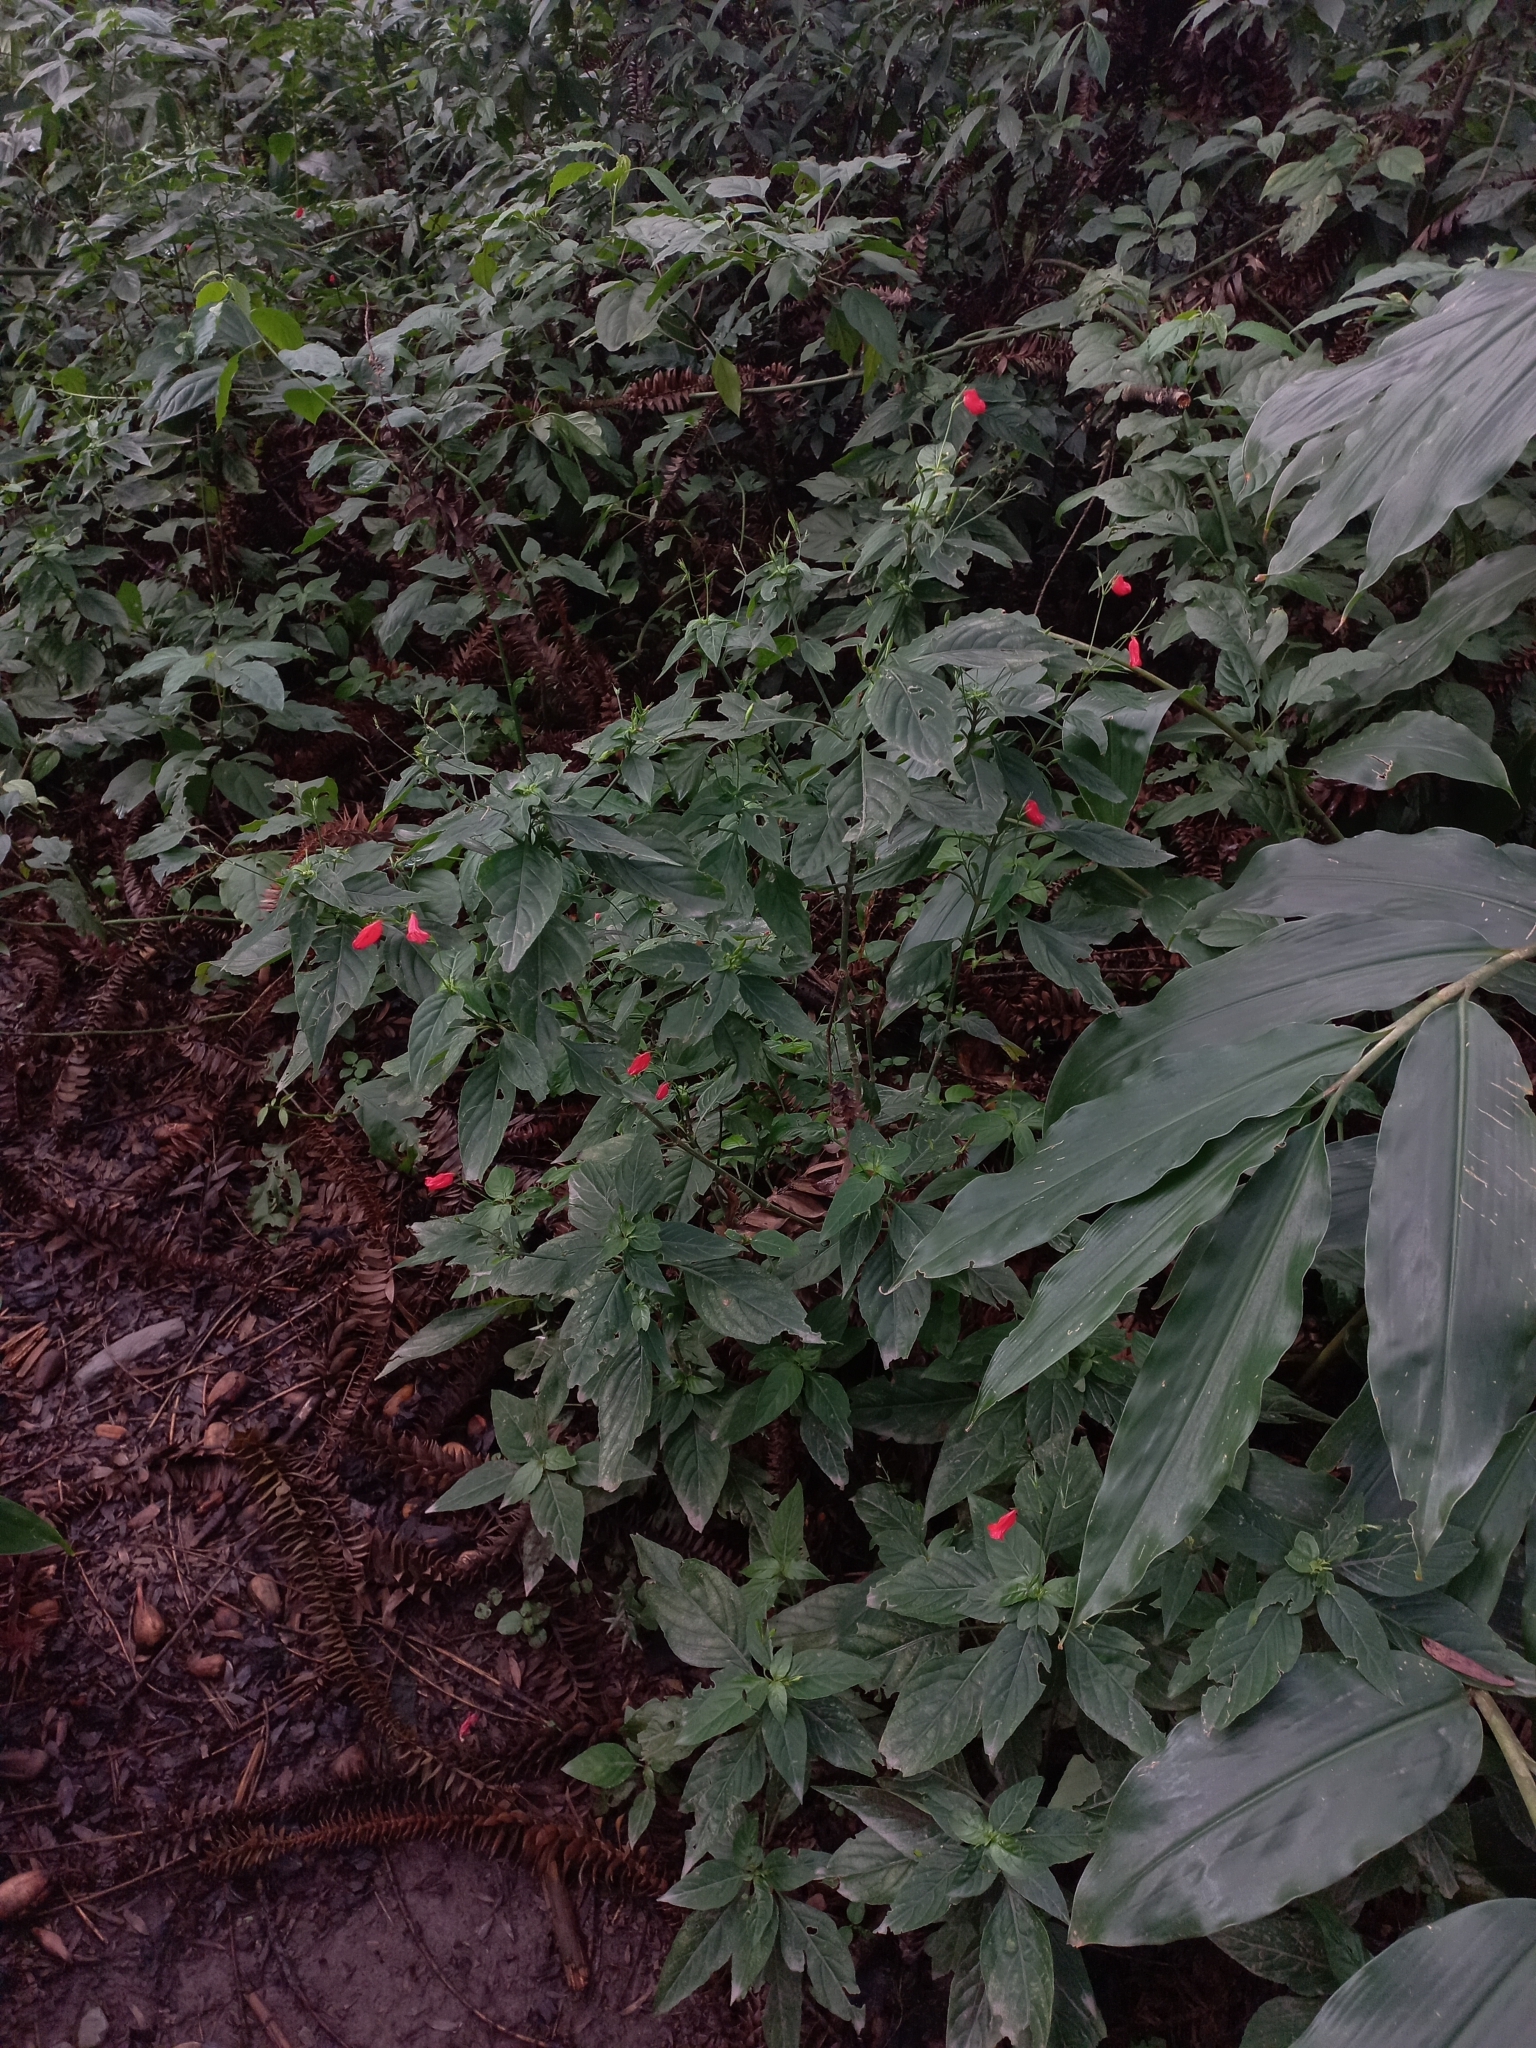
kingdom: Plantae
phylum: Tracheophyta
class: Magnoliopsida
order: Lamiales
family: Acanthaceae
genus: Ruellia
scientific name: Ruellia brevifolia
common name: Tropical wild petunia
